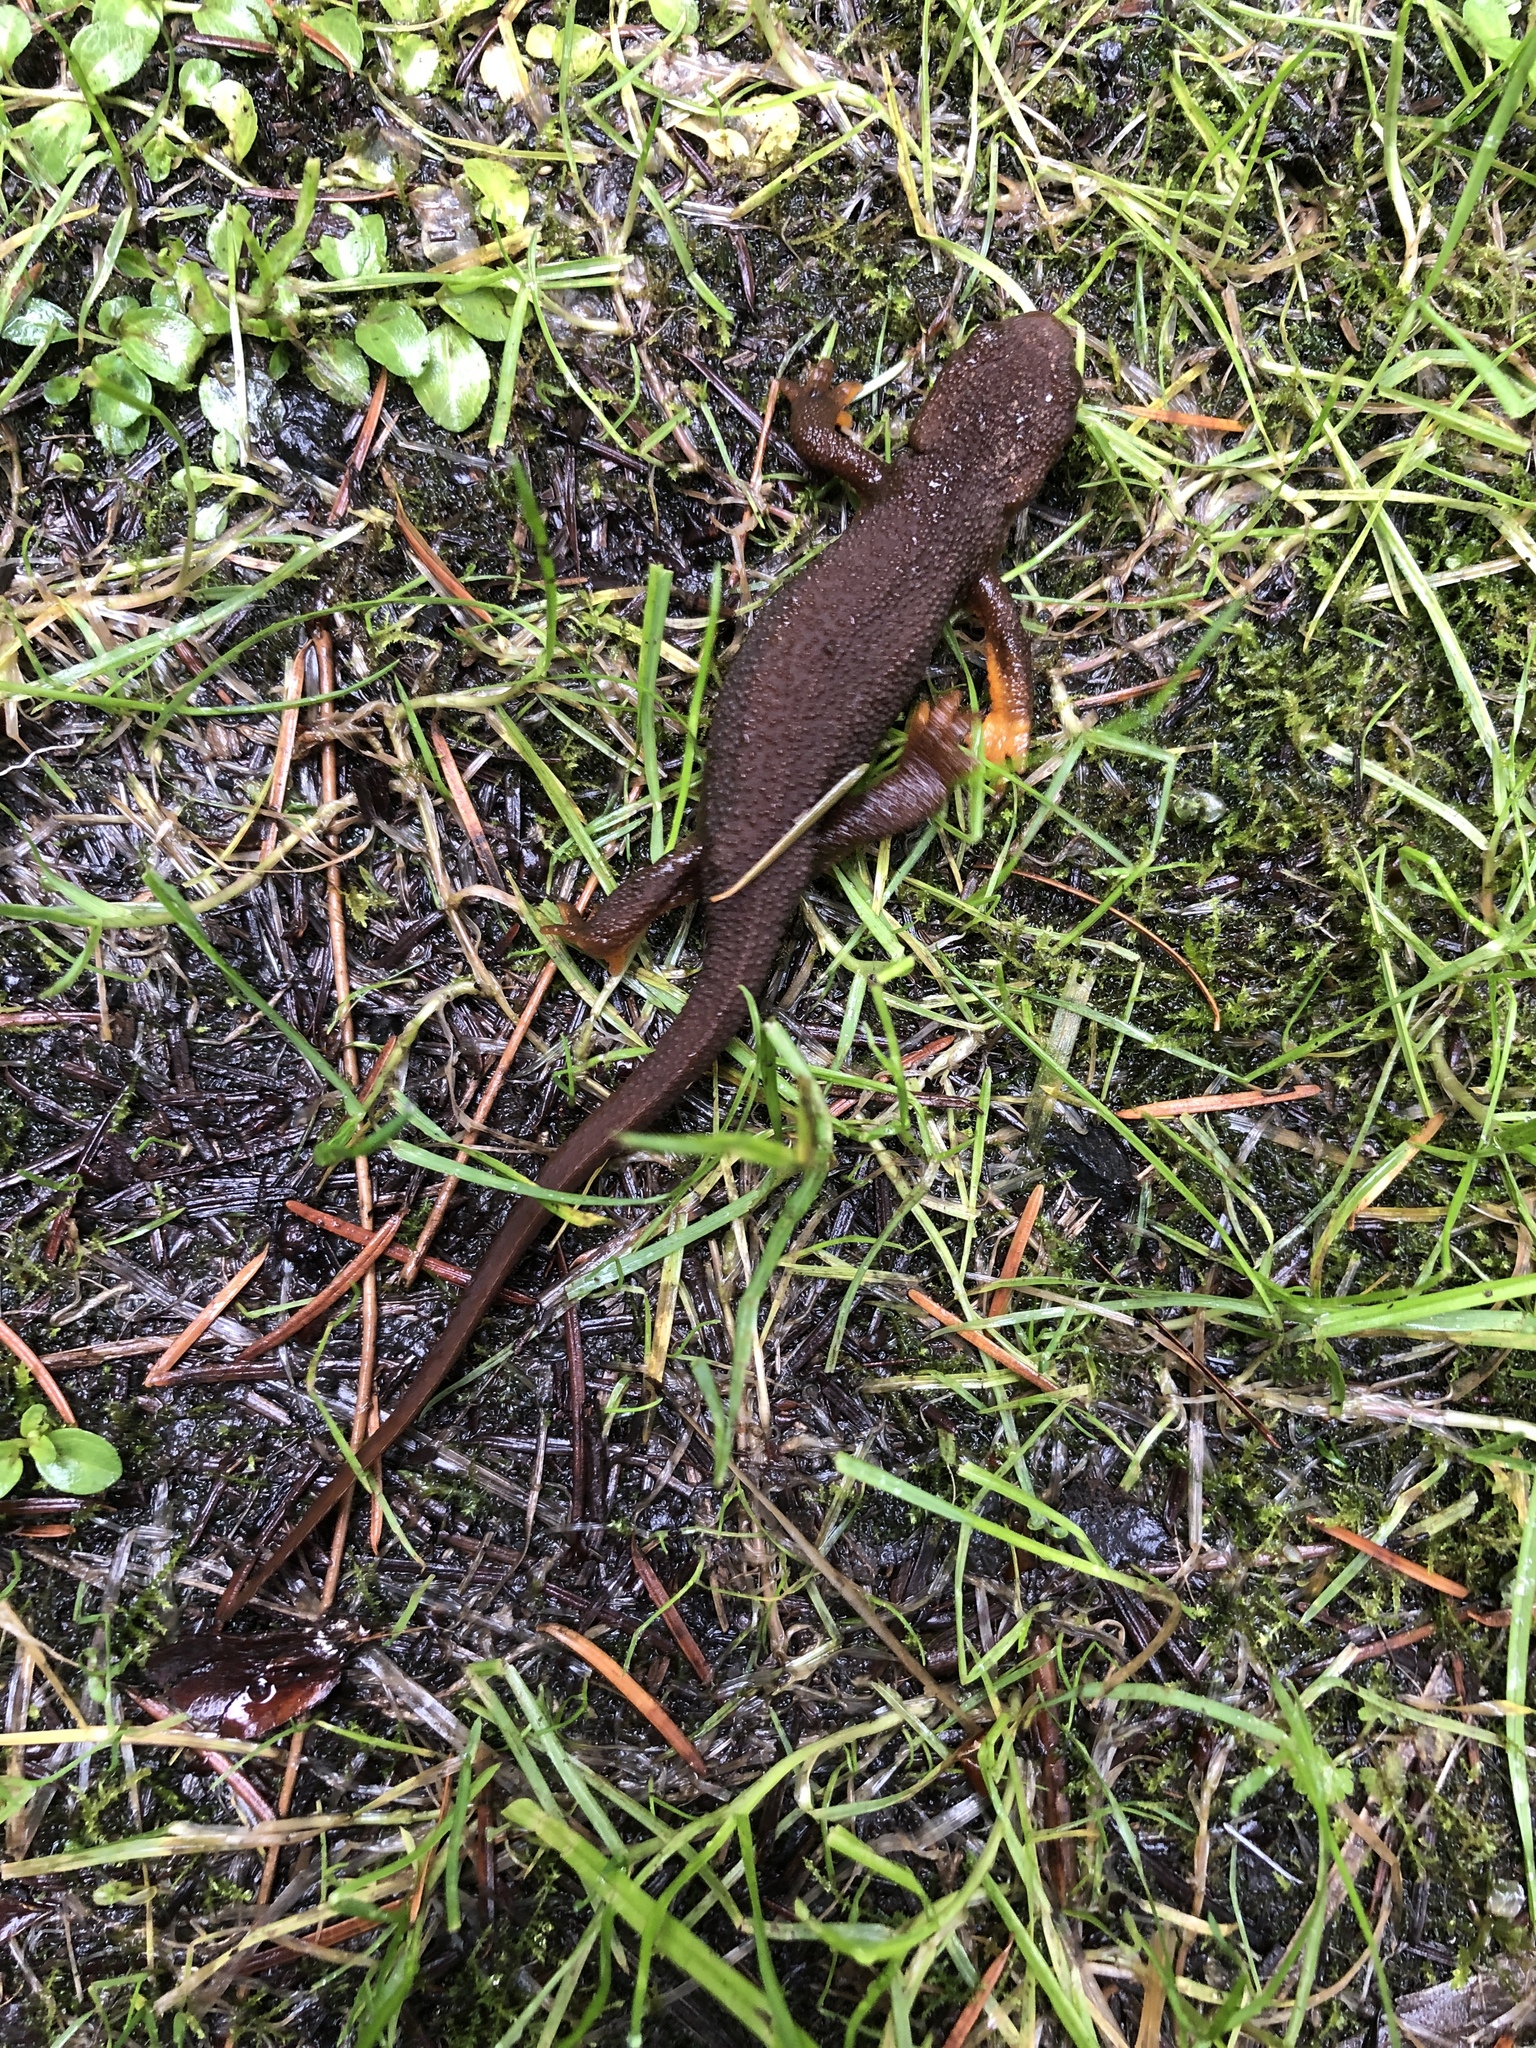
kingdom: Animalia
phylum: Chordata
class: Amphibia
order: Caudata
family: Salamandridae
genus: Taricha
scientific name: Taricha granulosa
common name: Roughskin newt
